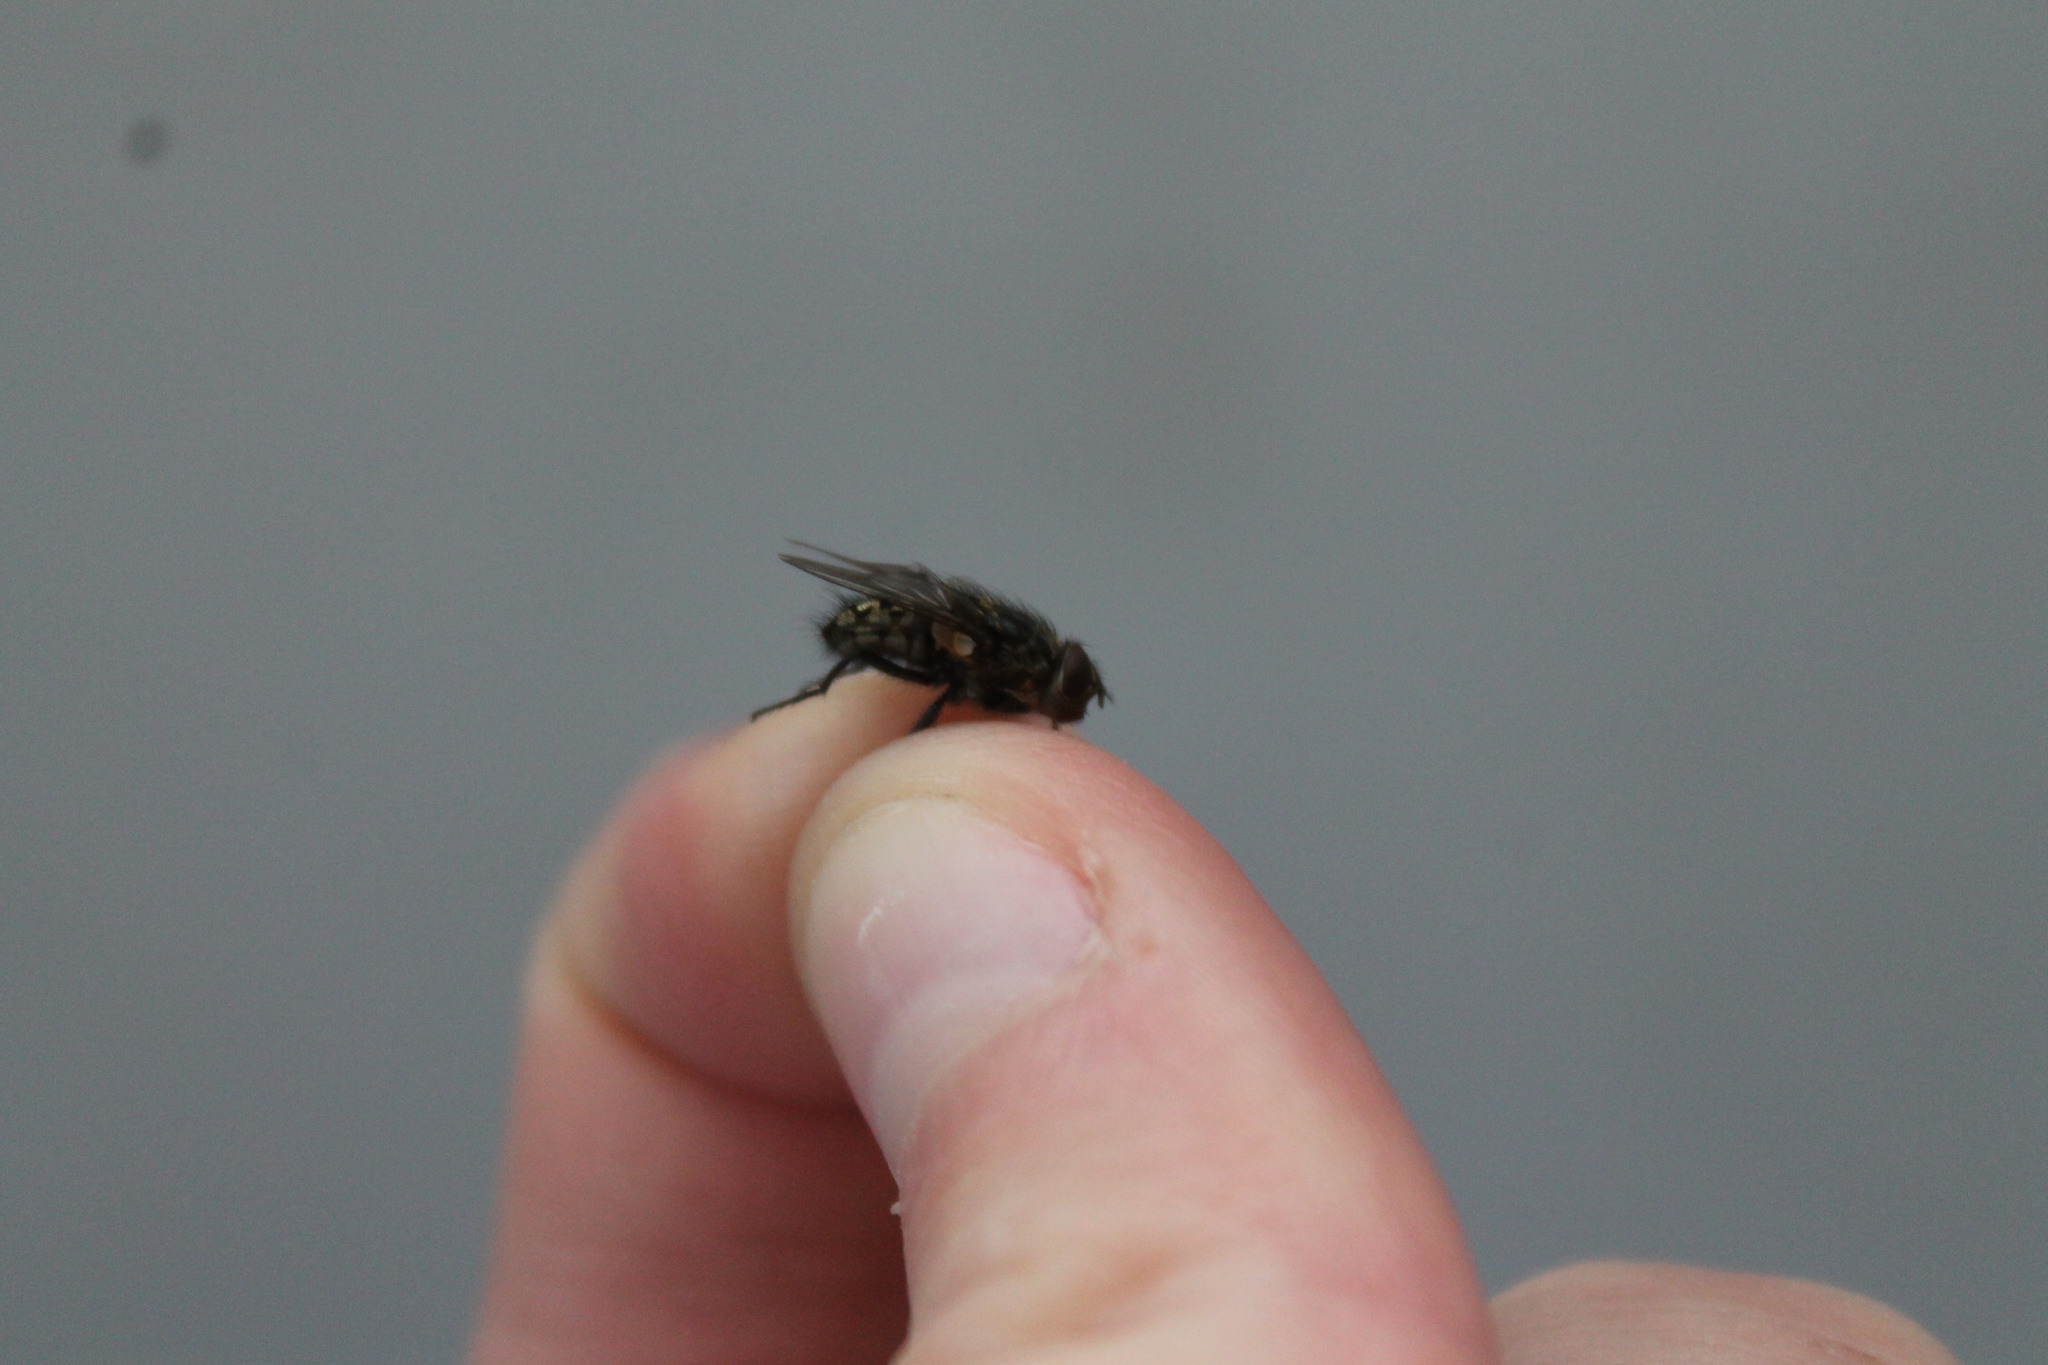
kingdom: Animalia
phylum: Arthropoda
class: Insecta
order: Diptera
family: Polleniidae
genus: Pollenia
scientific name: Pollenia
